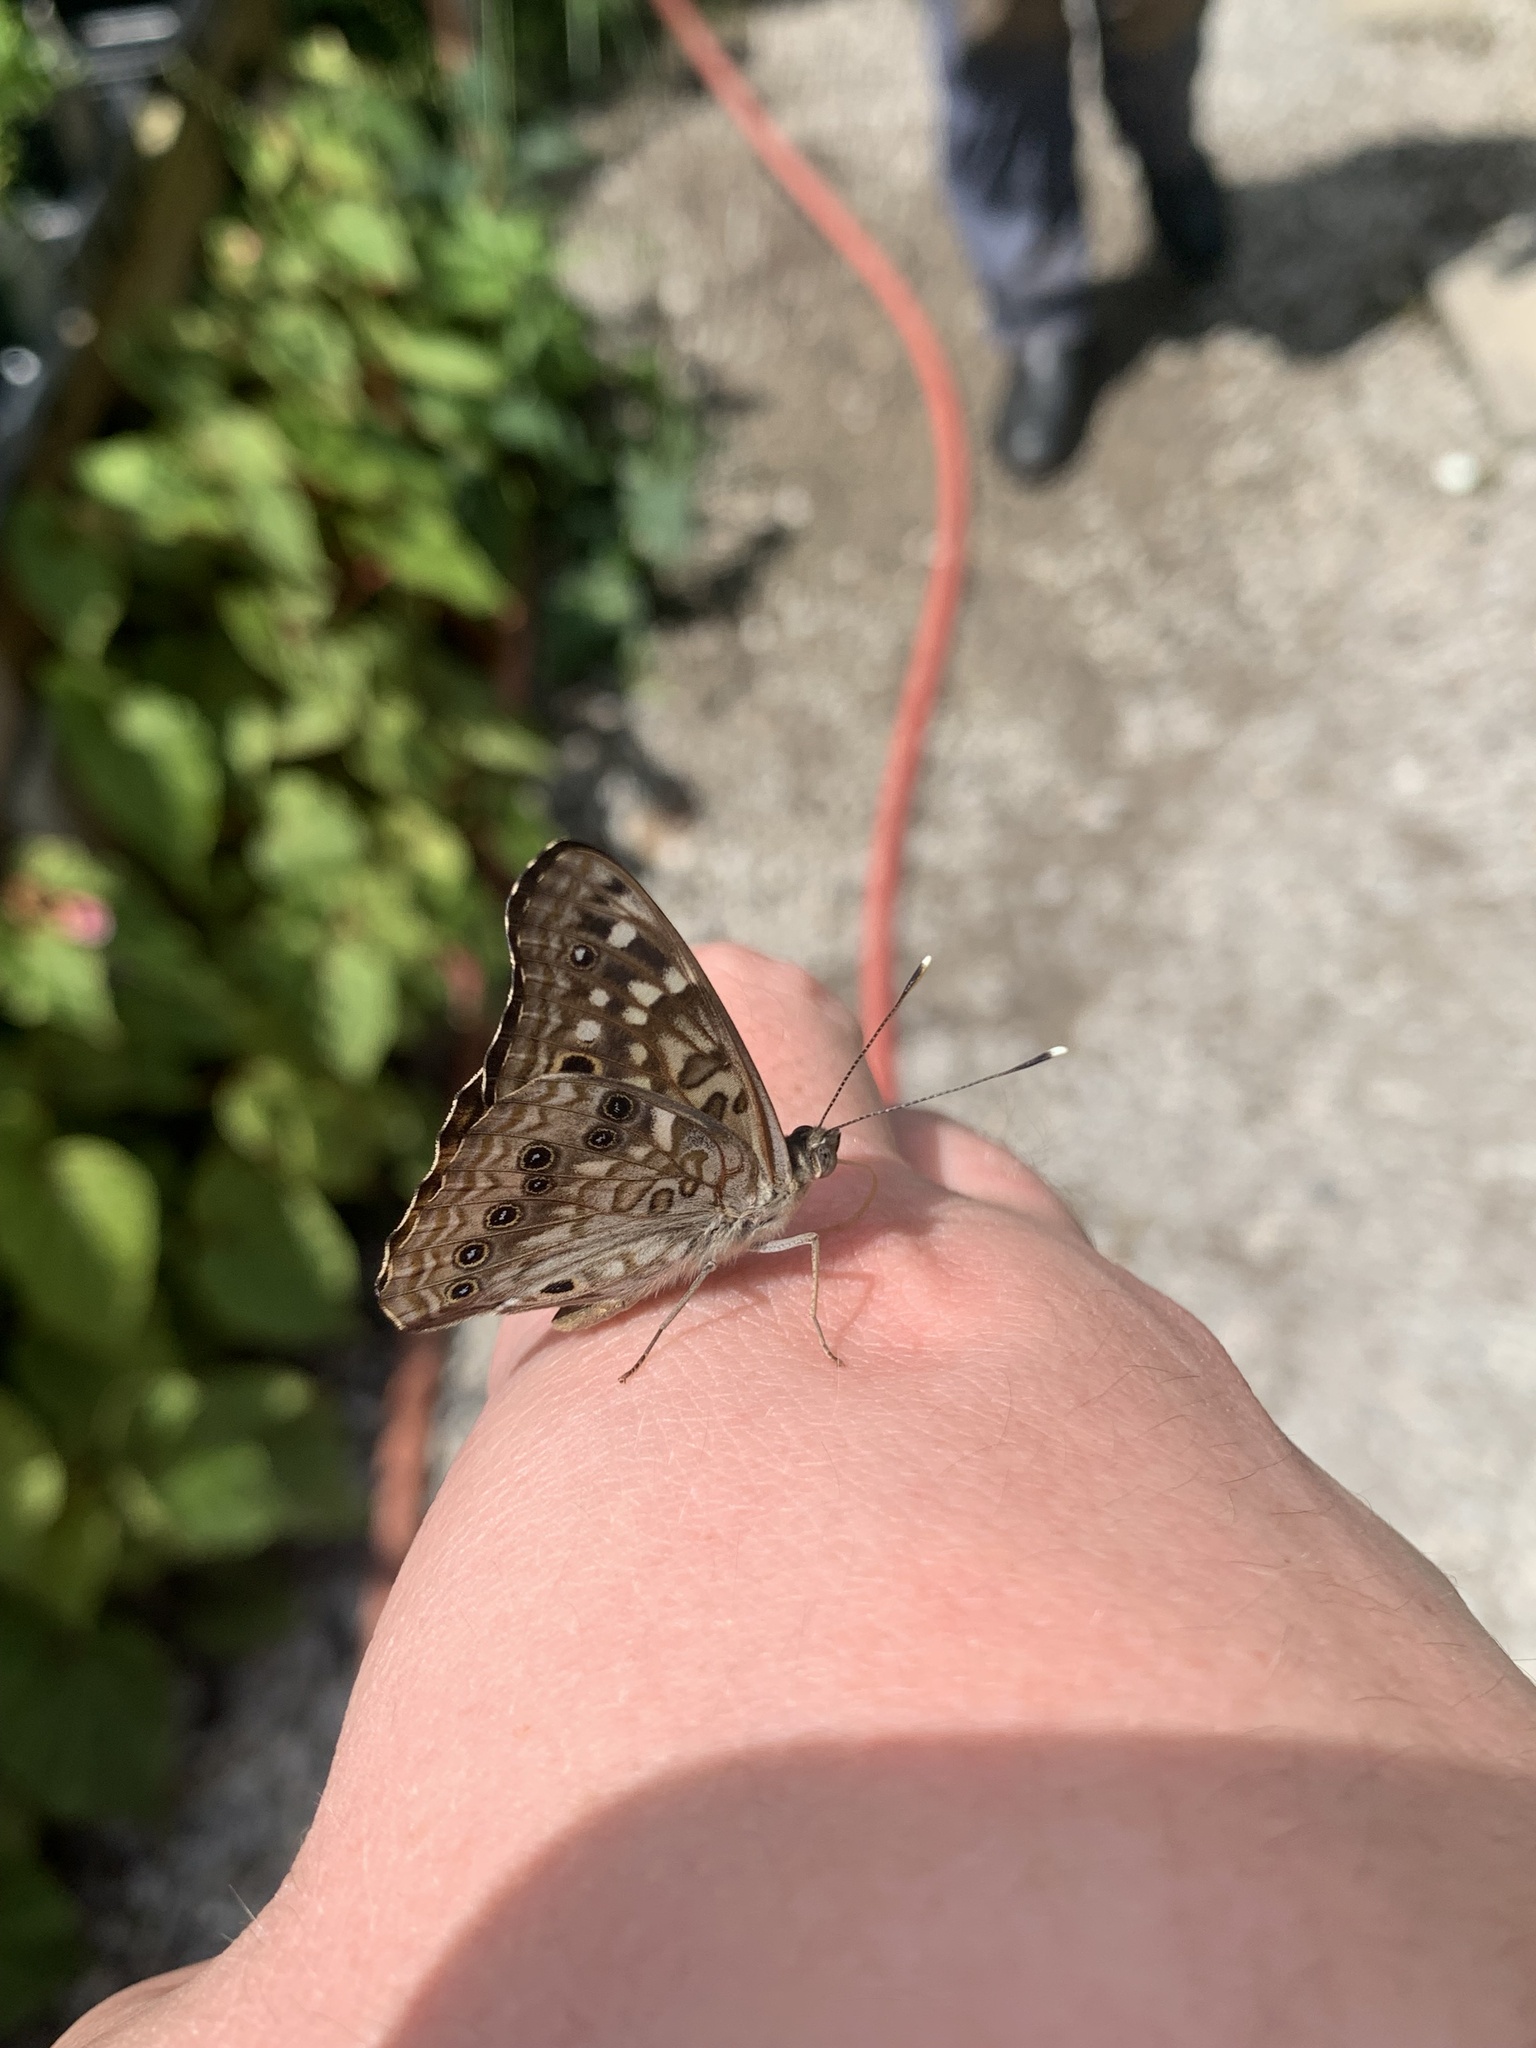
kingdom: Animalia
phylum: Arthropoda
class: Insecta
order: Lepidoptera
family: Nymphalidae
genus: Asterocampa
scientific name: Asterocampa celtis
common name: Hackberry emperor
